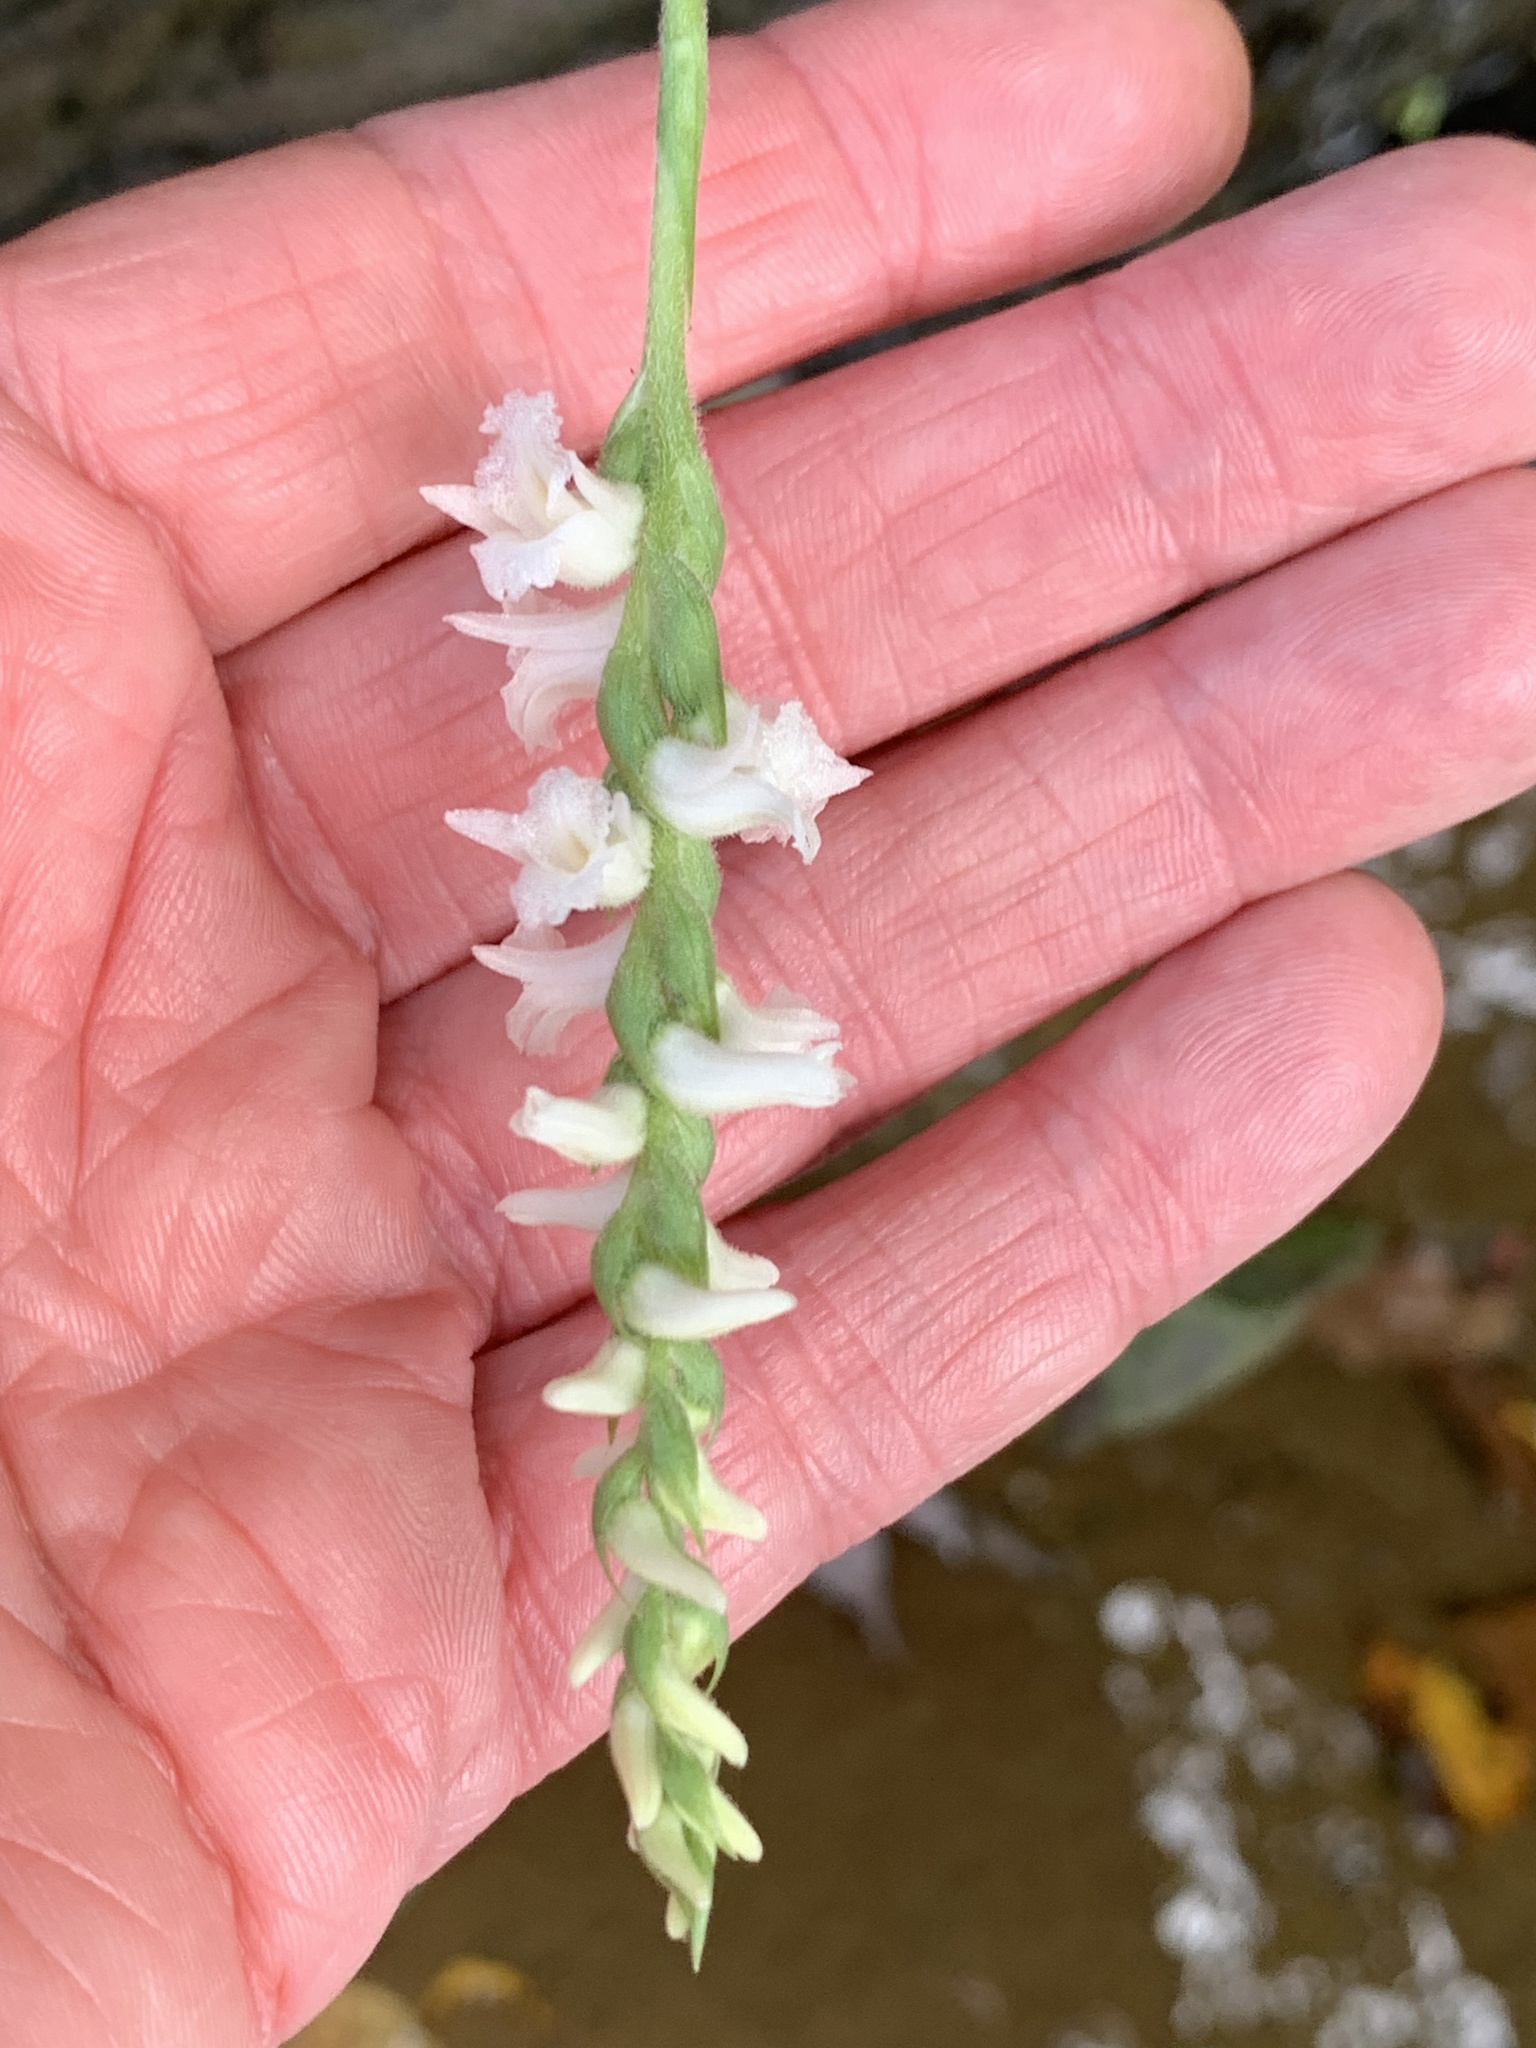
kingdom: Plantae
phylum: Tracheophyta
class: Liliopsida
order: Asparagales
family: Orchidaceae
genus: Spiranthes
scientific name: Spiranthes arcisepala
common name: Appalachian ladies'-tresses
